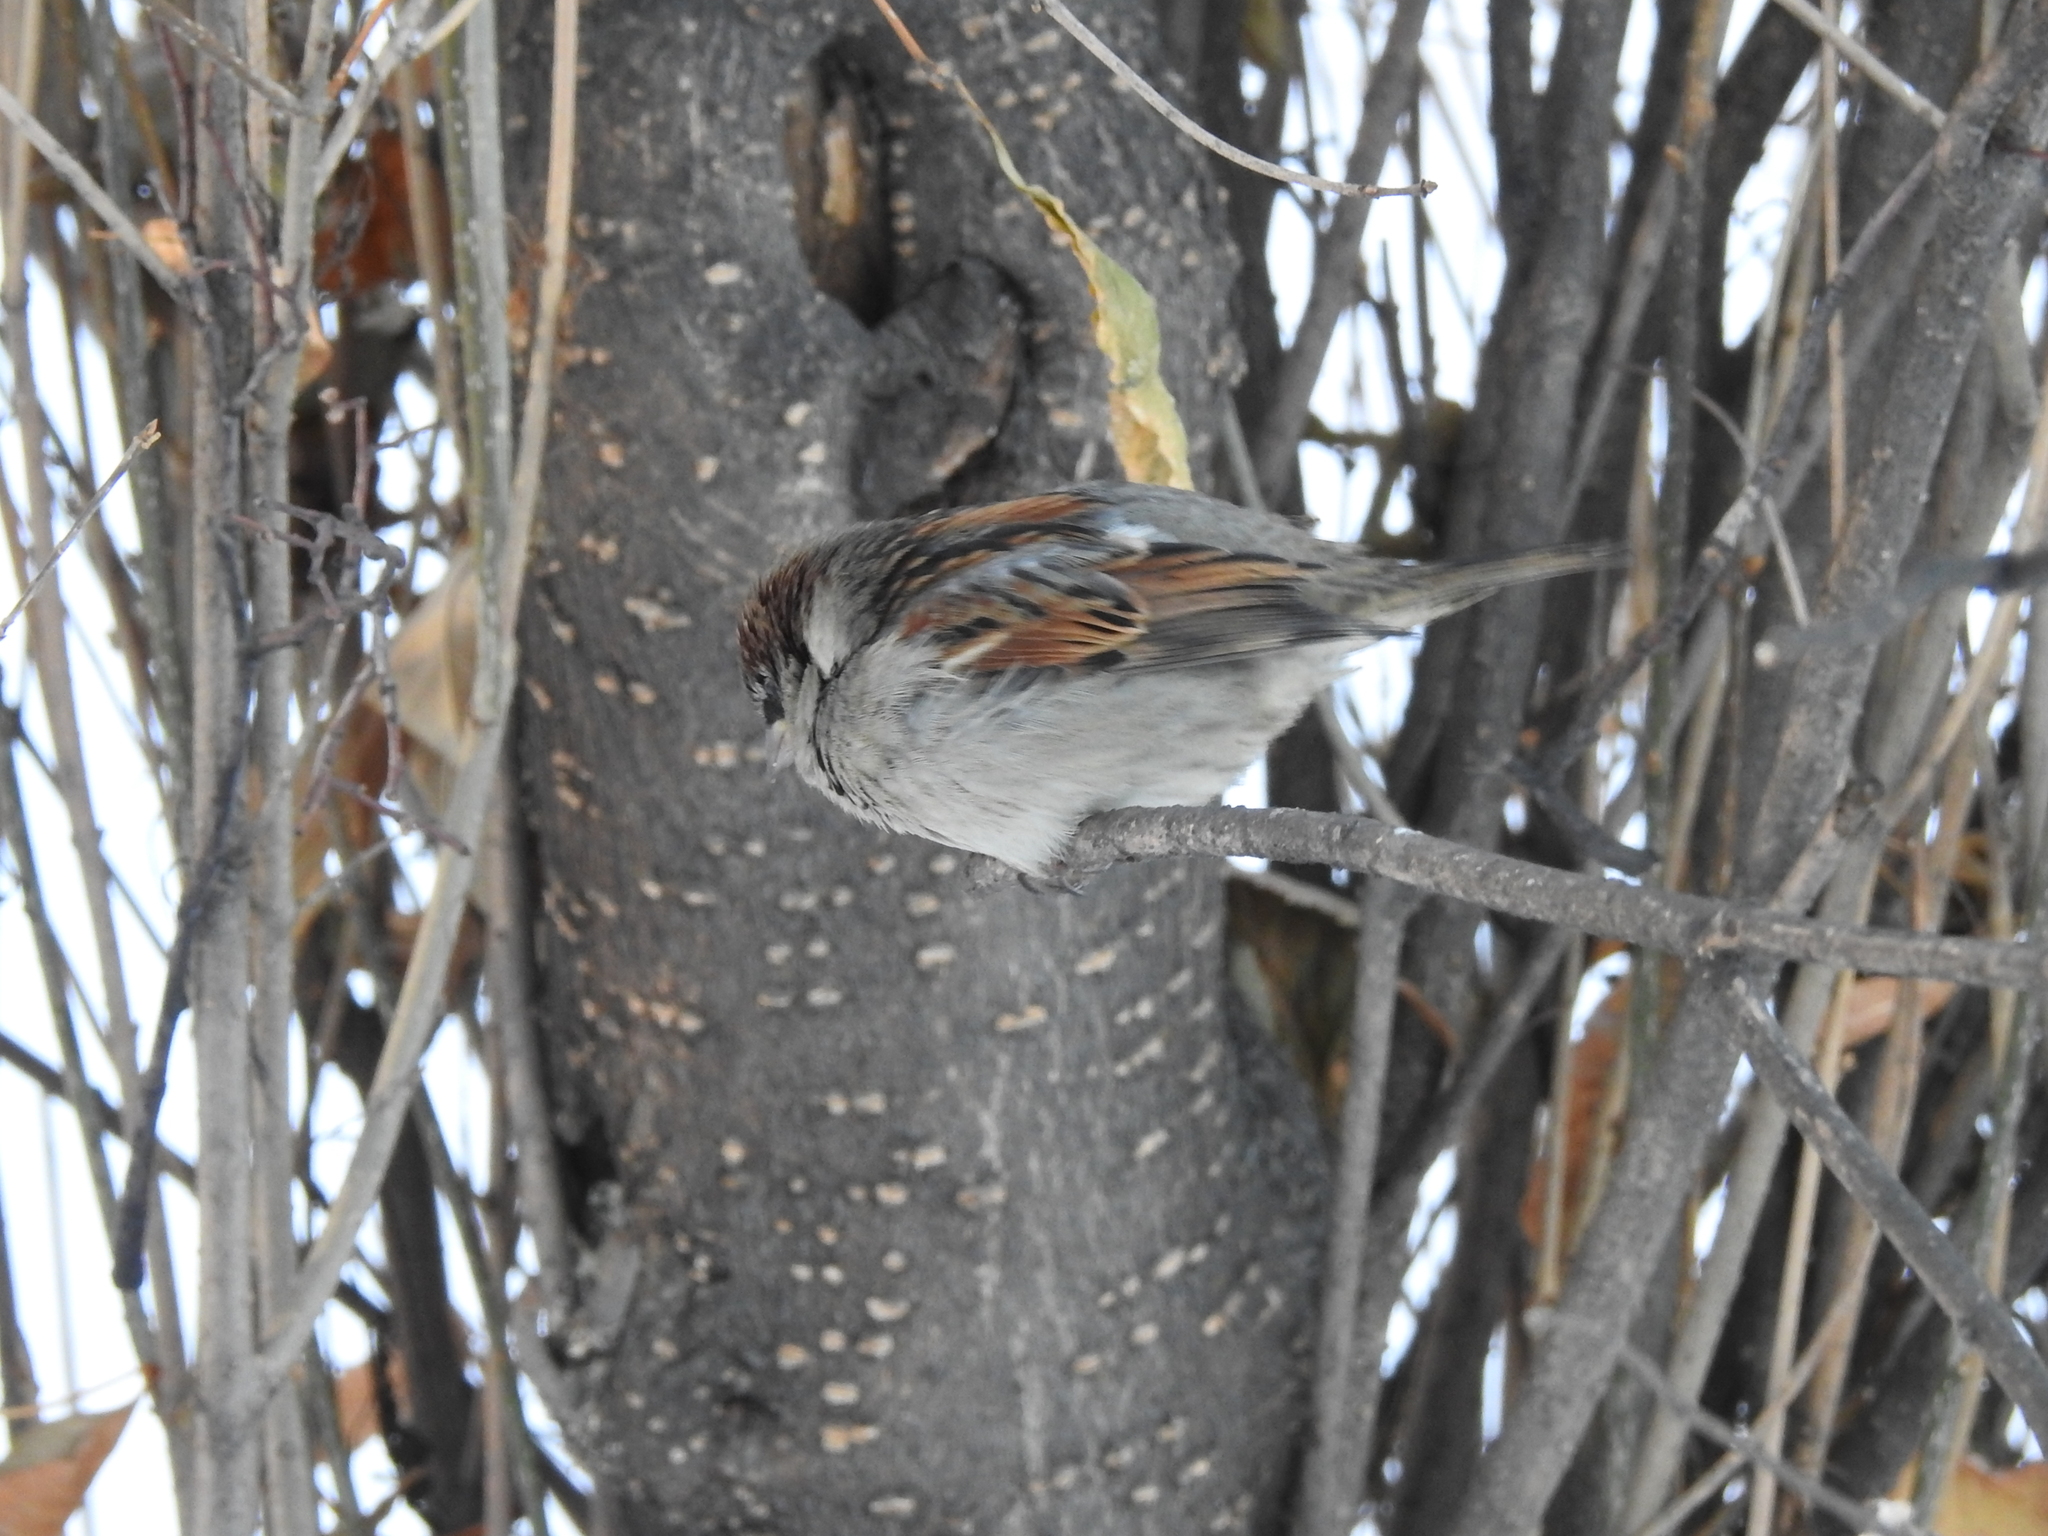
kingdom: Animalia
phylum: Chordata
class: Aves
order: Passeriformes
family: Passeridae
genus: Passer
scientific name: Passer domesticus
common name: House sparrow
